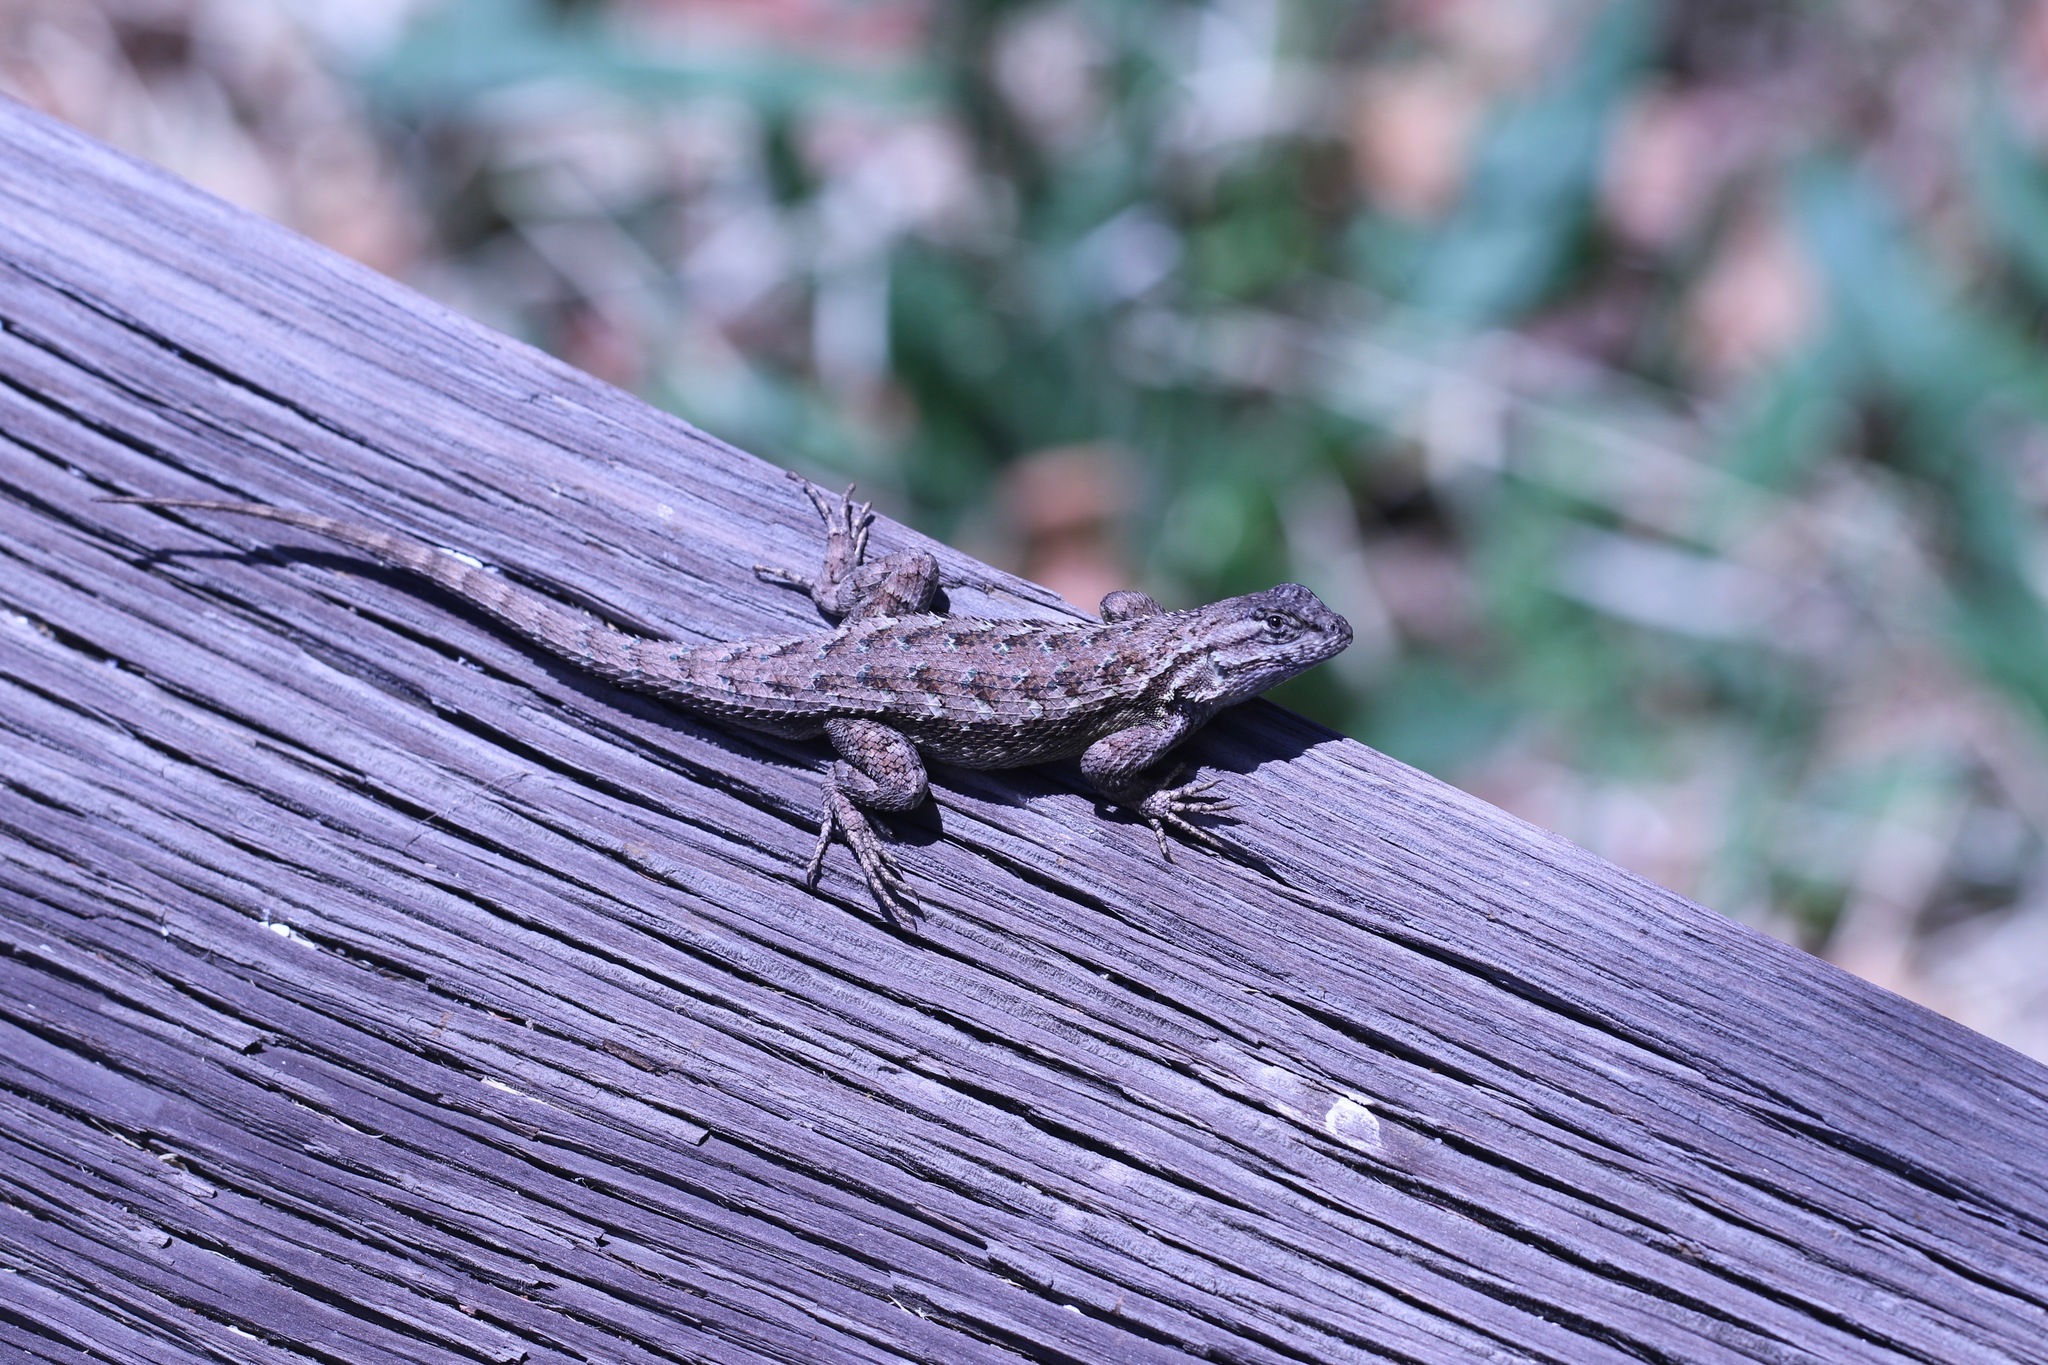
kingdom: Animalia
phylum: Chordata
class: Squamata
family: Phrynosomatidae
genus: Sceloporus
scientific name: Sceloporus occidentalis
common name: Western fence lizard
